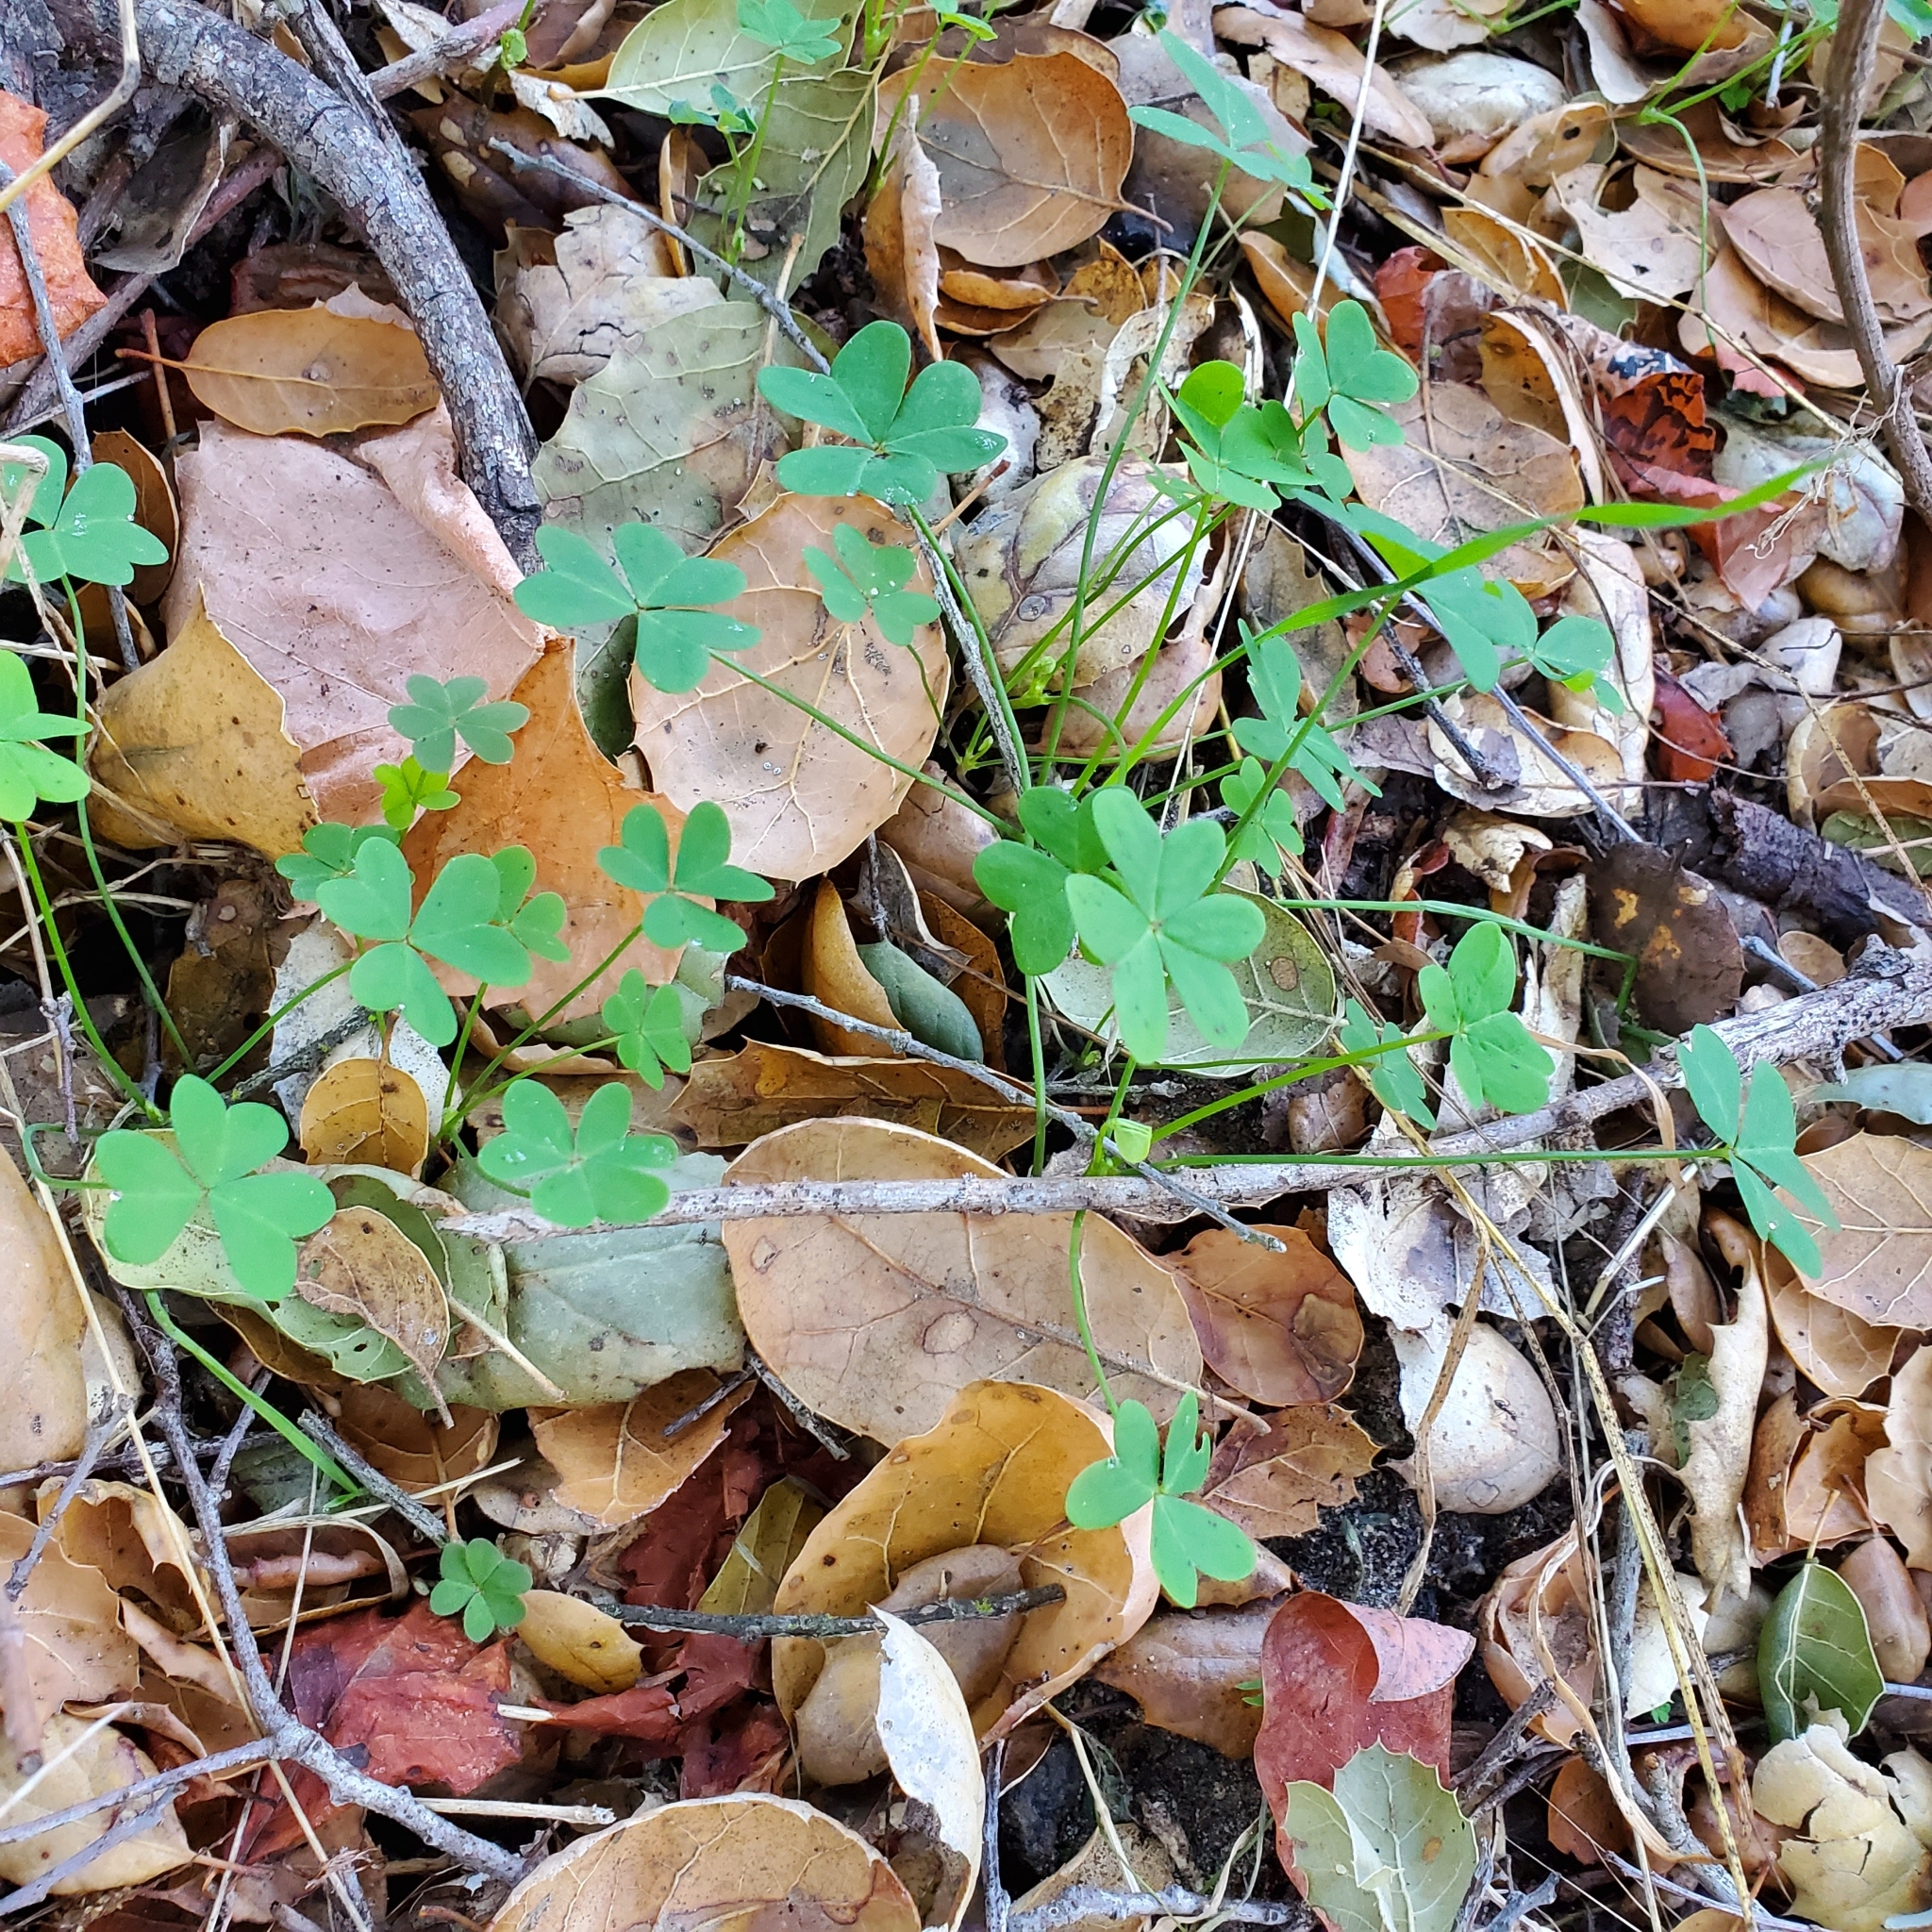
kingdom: Plantae
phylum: Tracheophyta
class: Magnoliopsida
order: Oxalidales
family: Oxalidaceae
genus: Oxalis
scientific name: Oxalis pes-caprae
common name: Bermuda-buttercup
